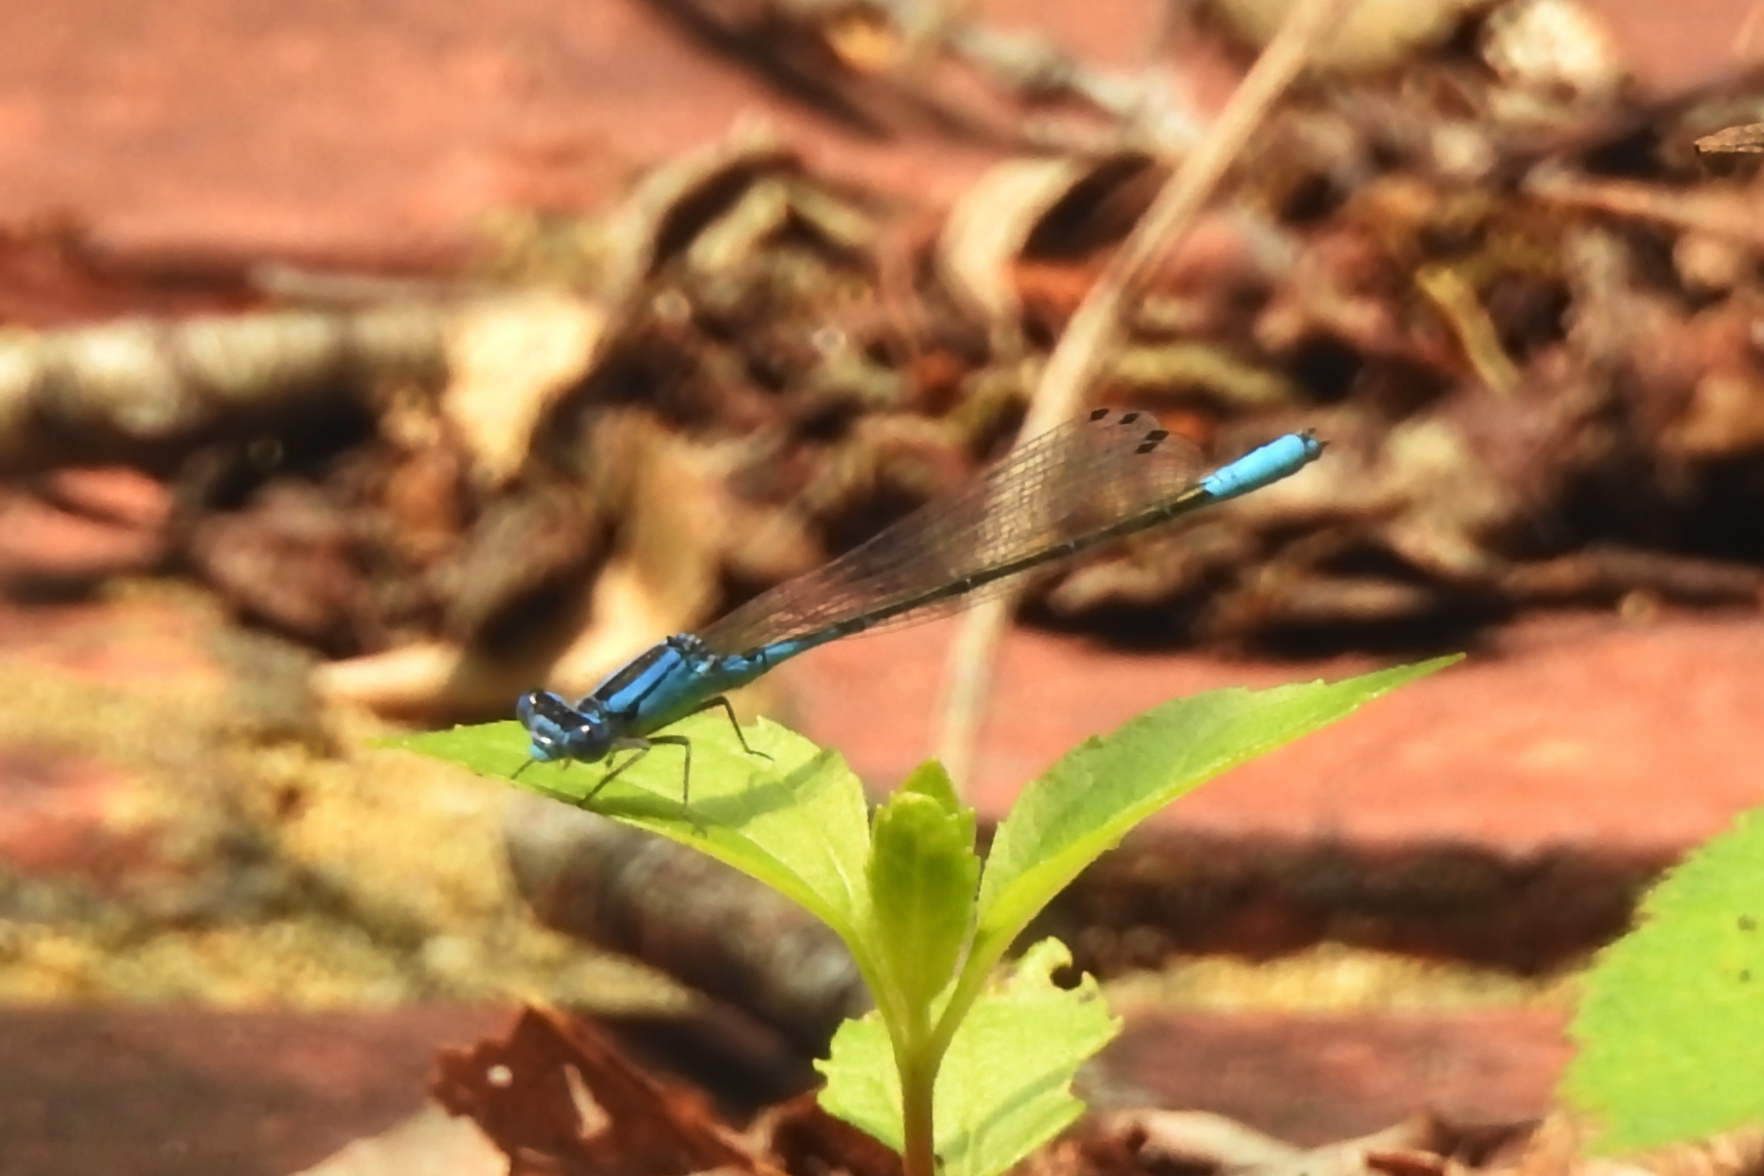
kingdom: Animalia
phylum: Arthropoda
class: Insecta
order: Odonata
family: Coenagrionidae
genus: Enallagma
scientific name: Enallagma aspersum
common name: Azure bluet
